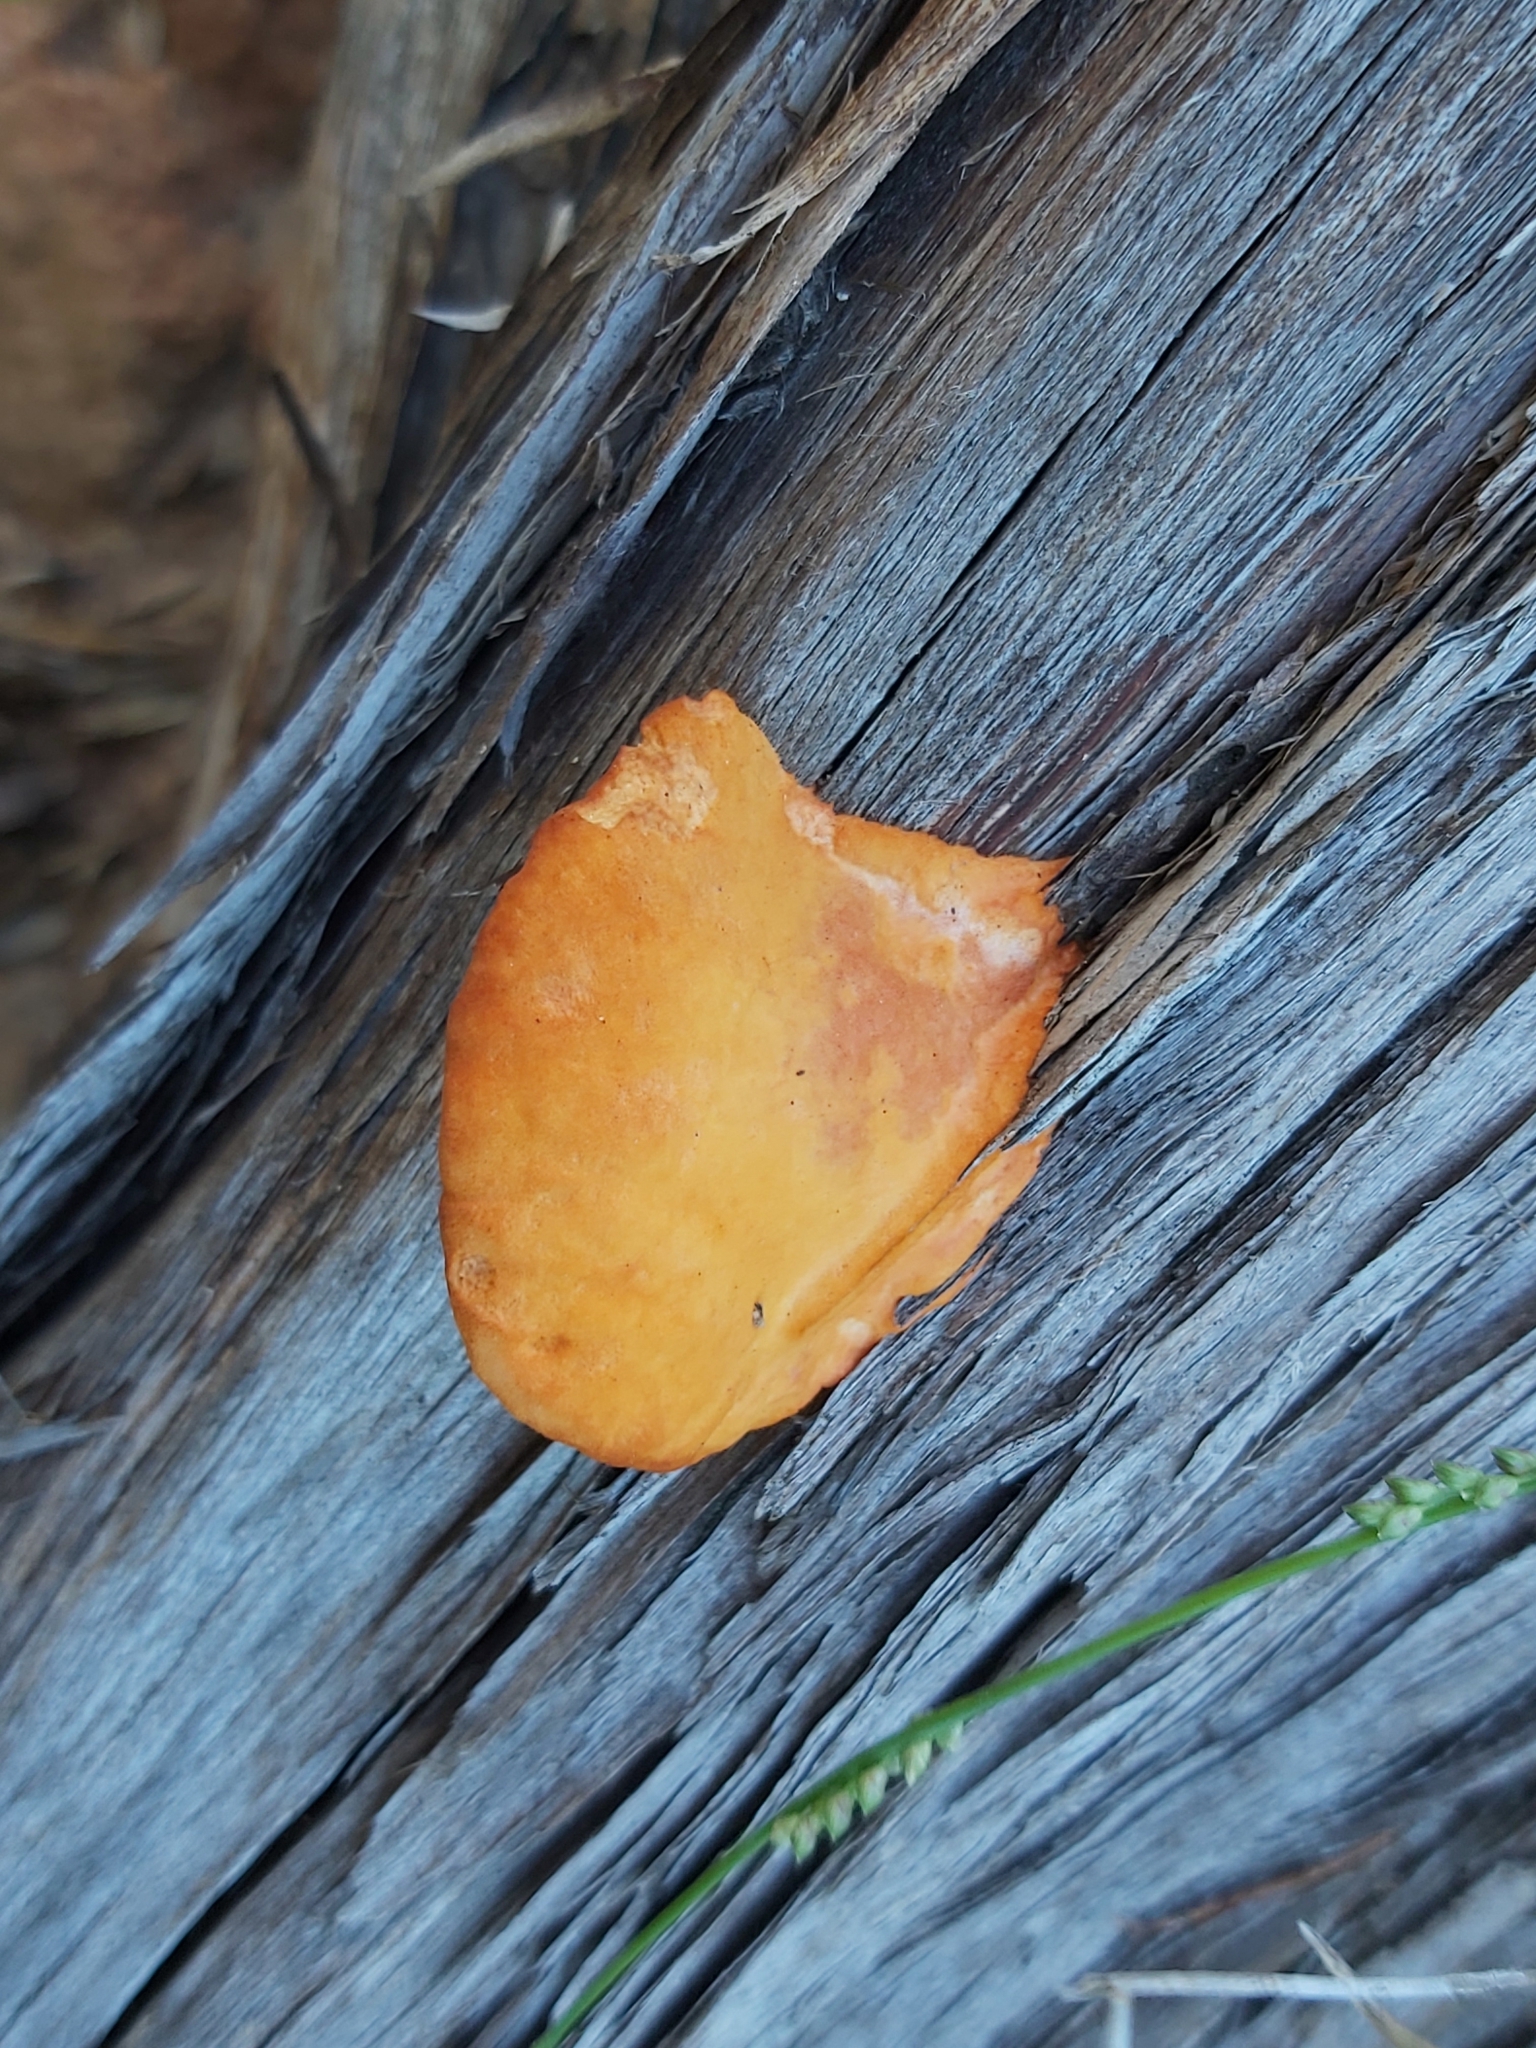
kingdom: Fungi
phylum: Basidiomycota
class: Agaricomycetes
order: Polyporales
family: Polyporaceae
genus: Trametes
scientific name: Trametes coccinea
